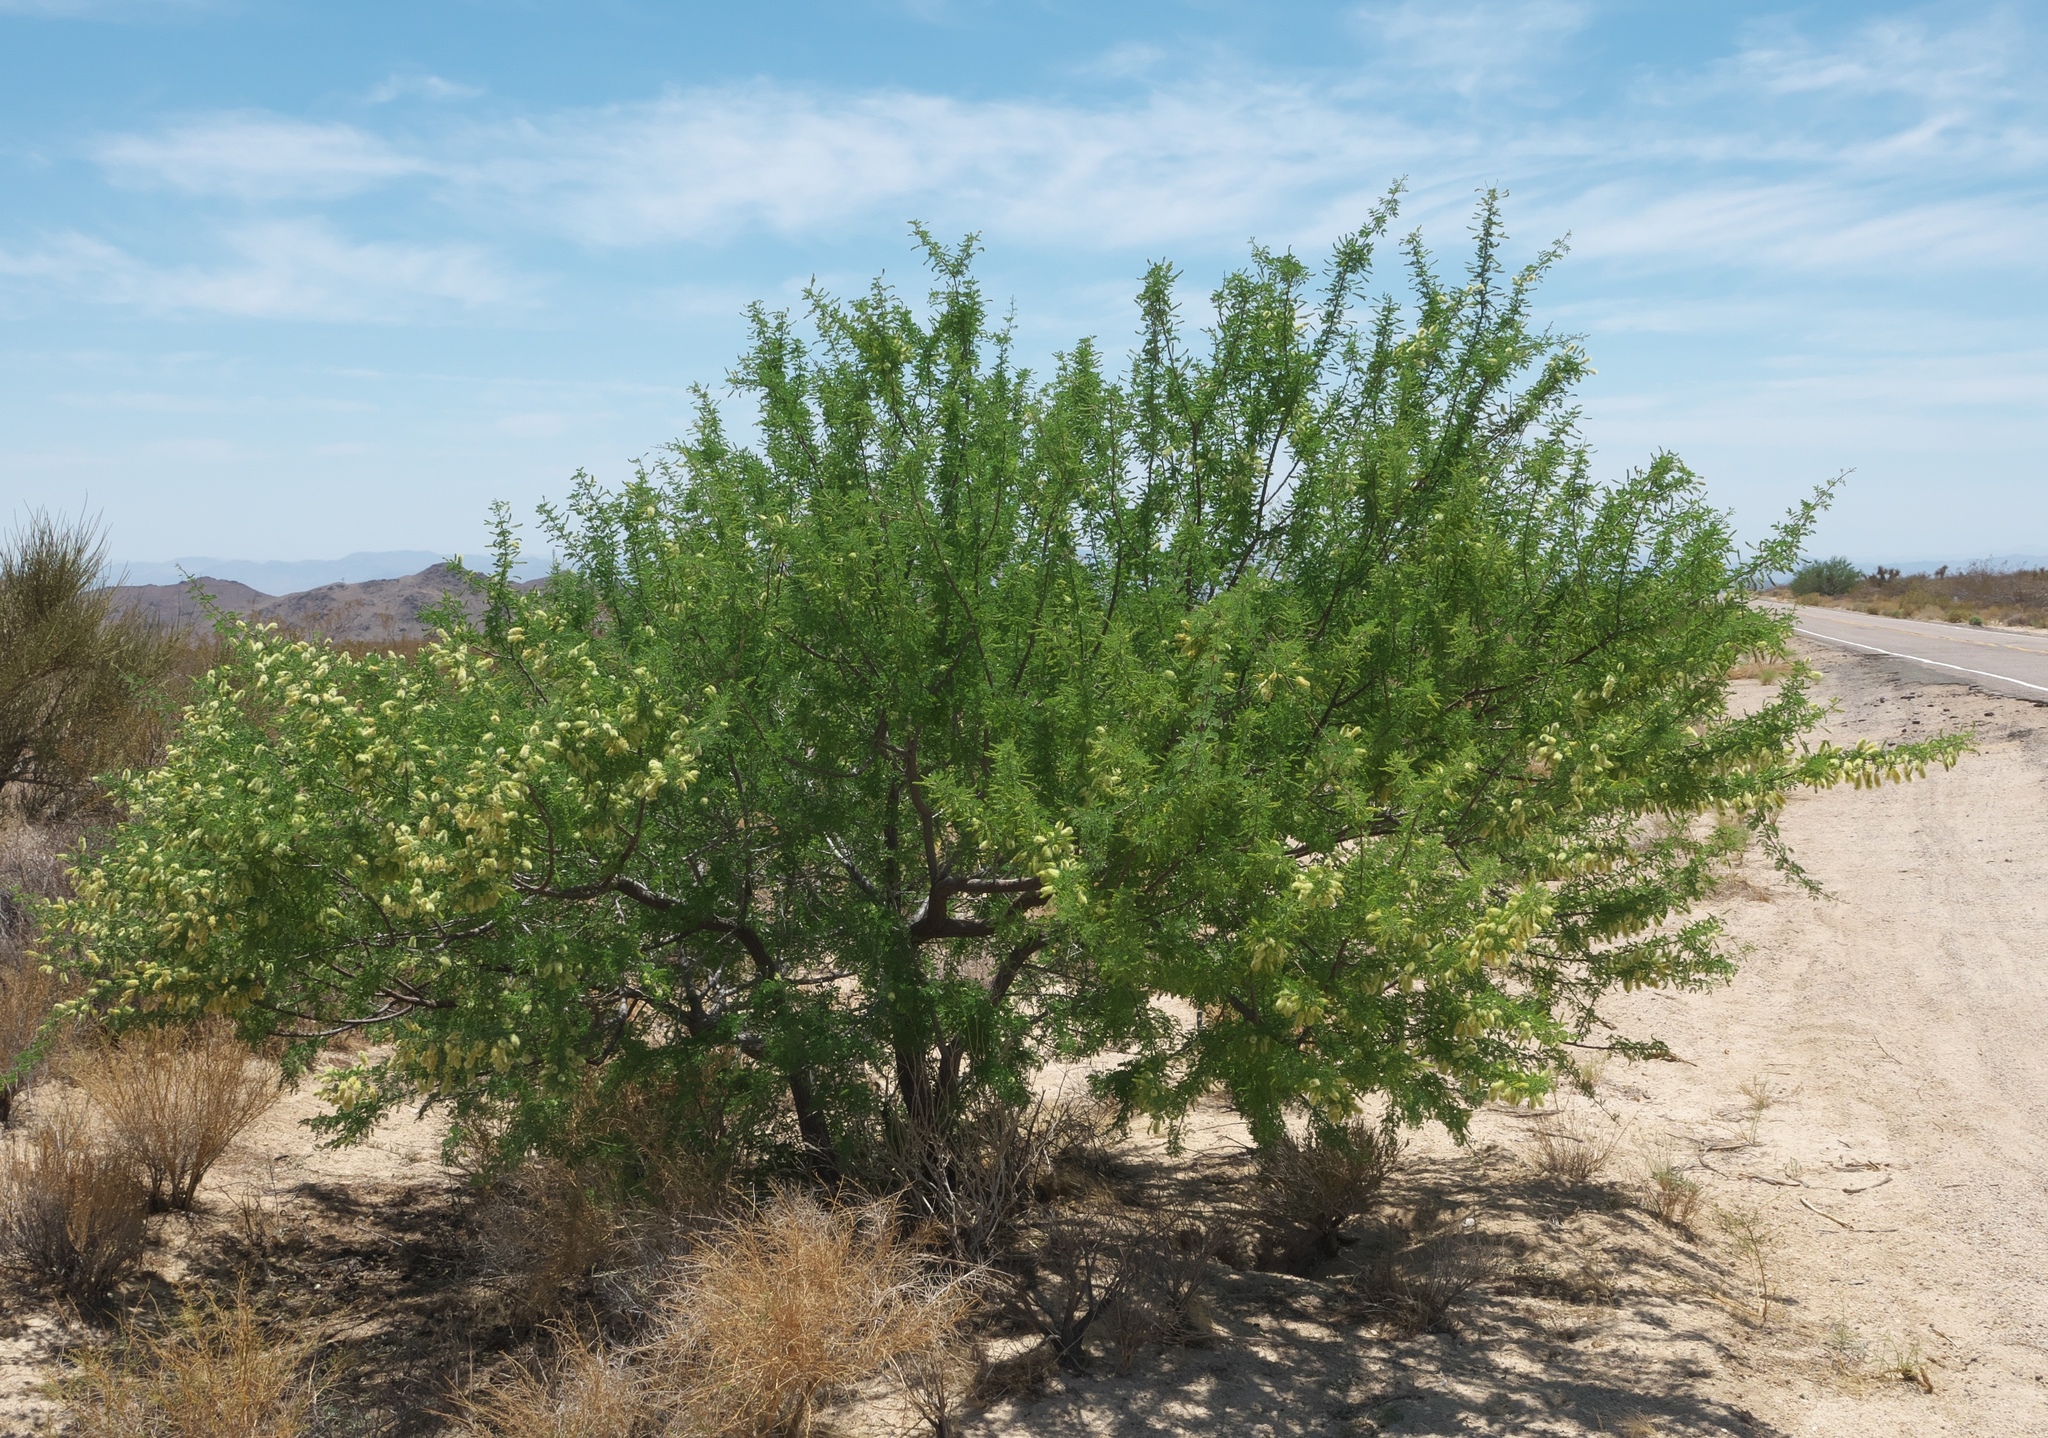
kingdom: Plantae
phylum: Tracheophyta
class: Magnoliopsida
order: Fabales
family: Fabaceae
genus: Senegalia
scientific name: Senegalia greggii
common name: Texas-mimosa
